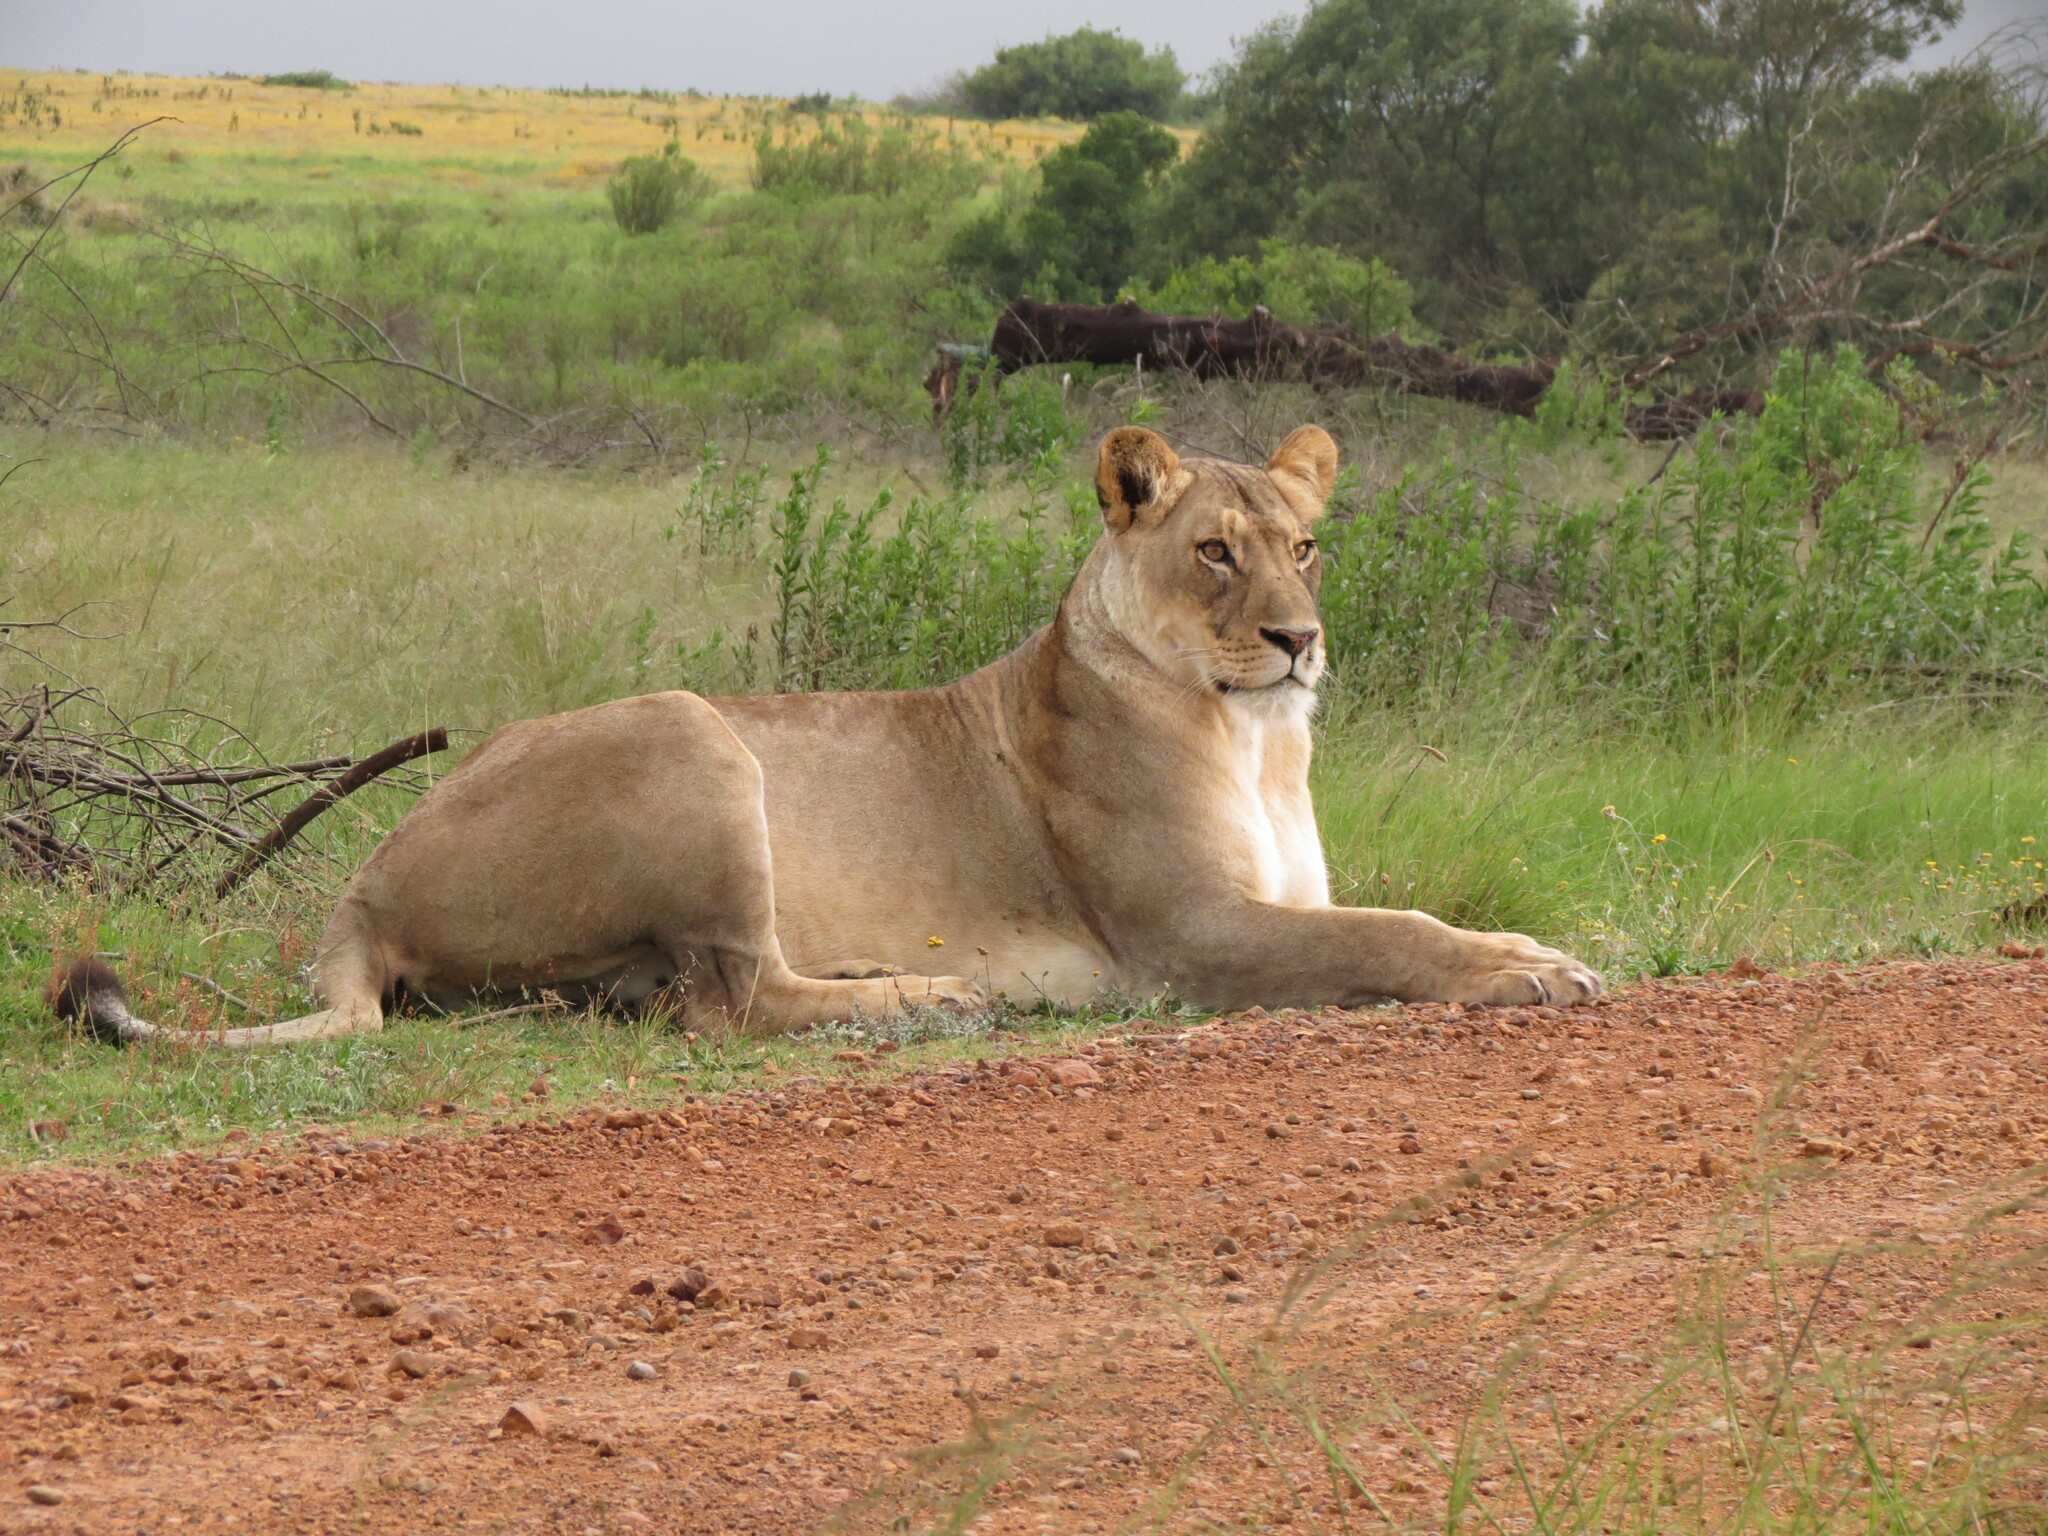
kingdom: Animalia
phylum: Chordata
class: Mammalia
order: Carnivora
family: Felidae
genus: Panthera
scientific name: Panthera leo
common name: Lion
